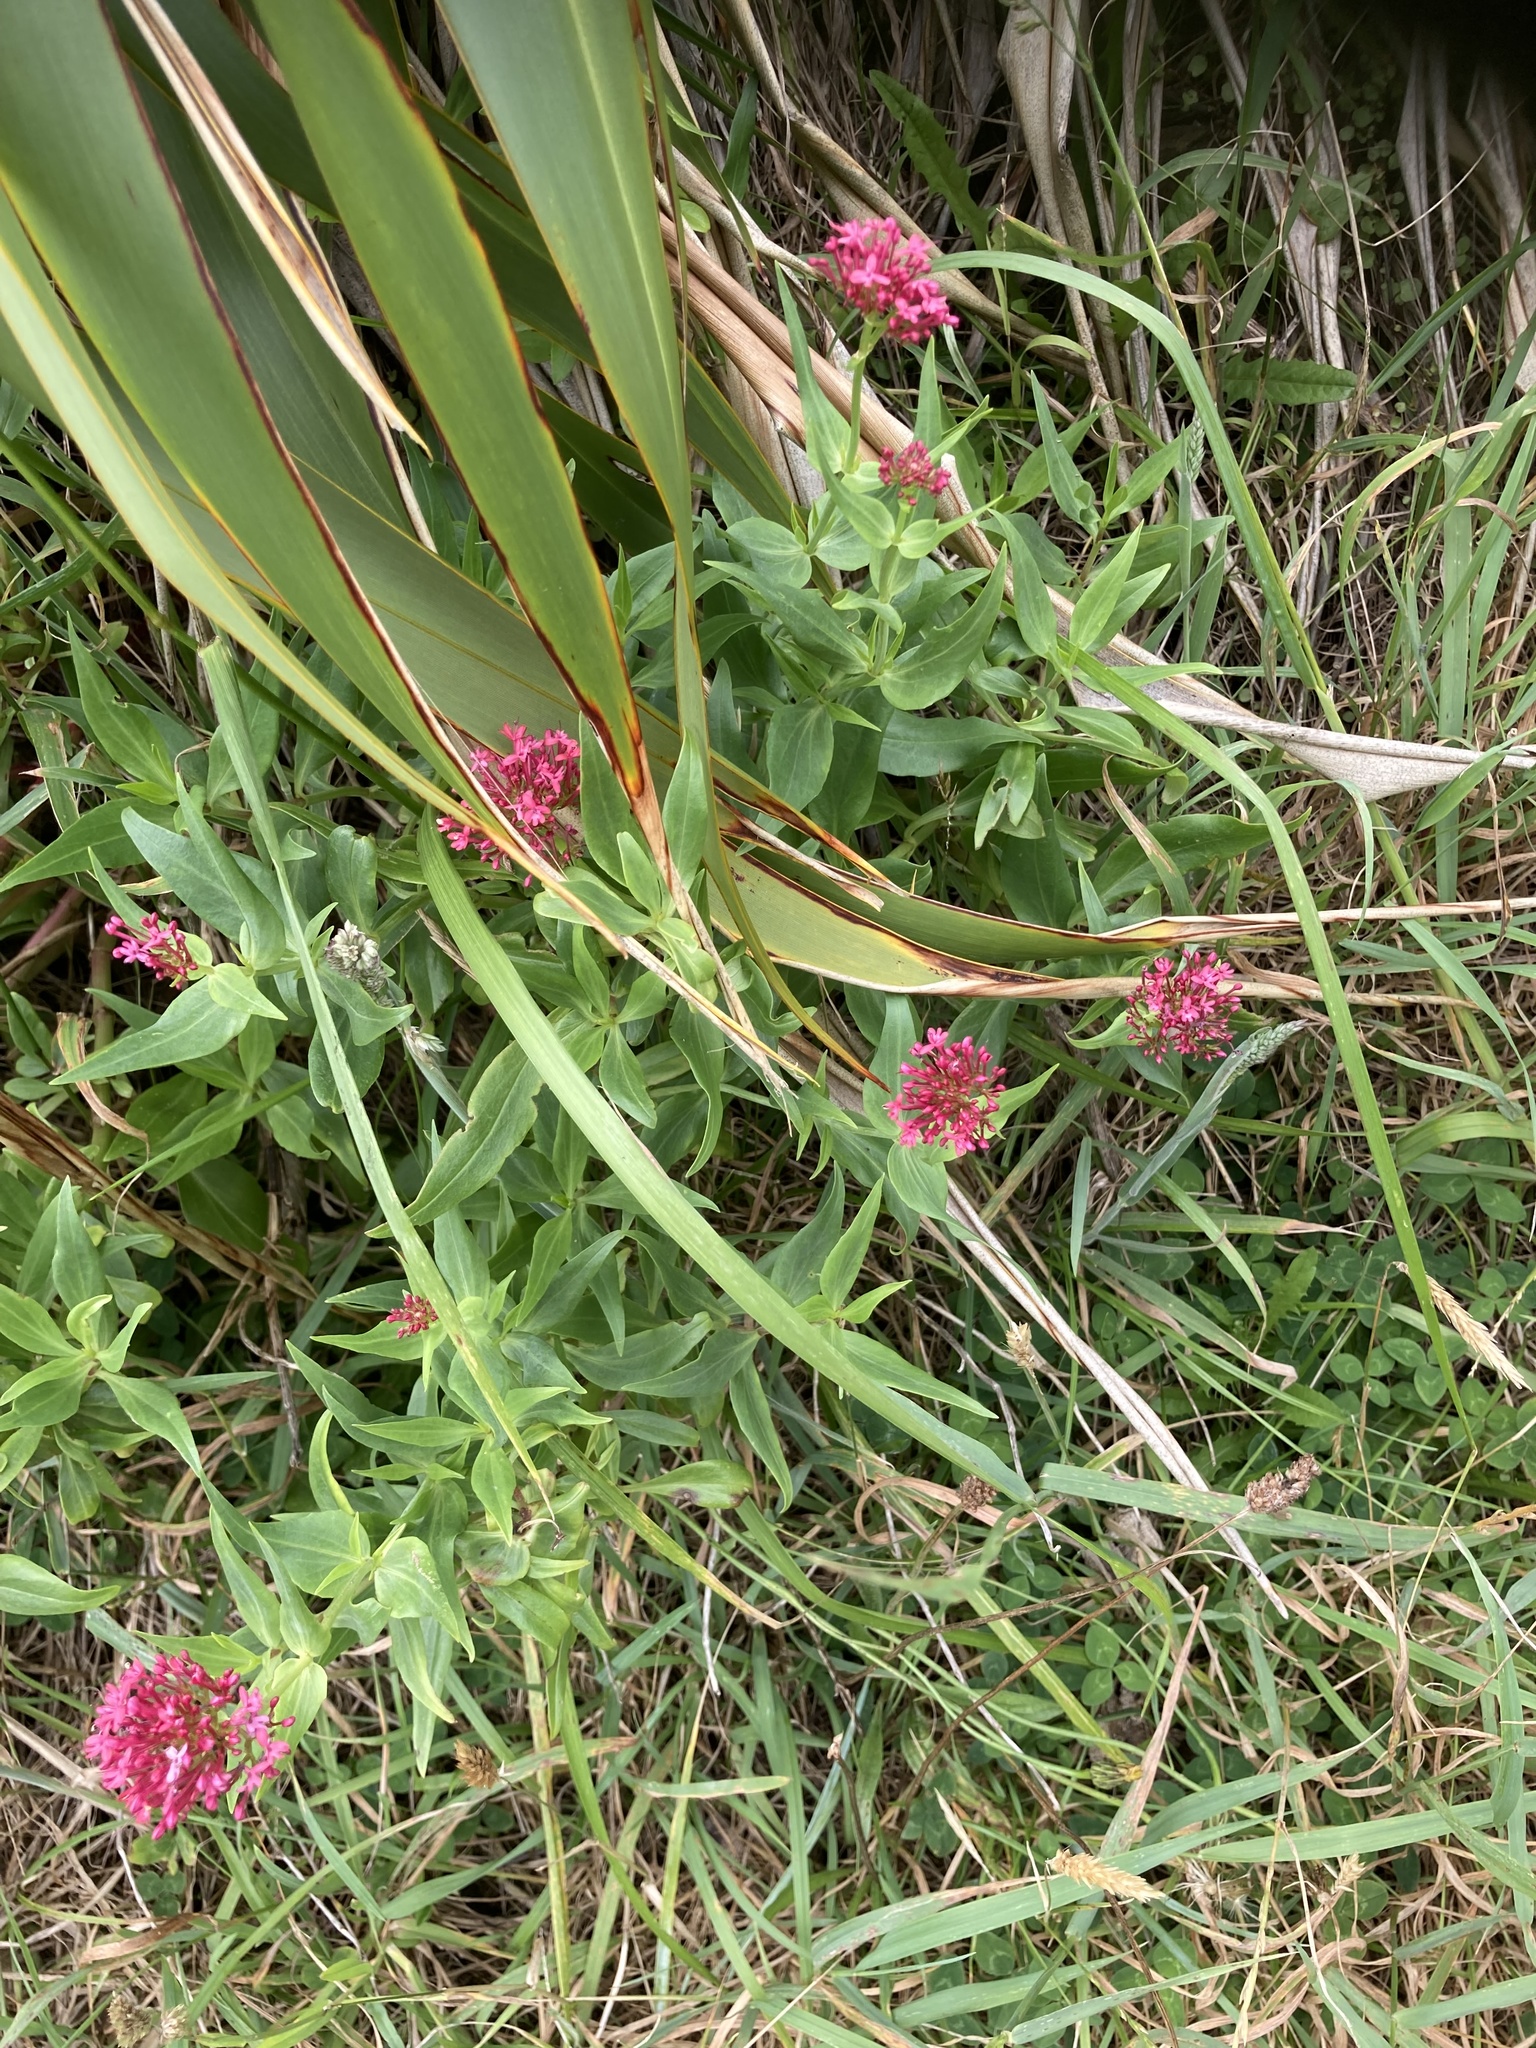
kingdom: Plantae
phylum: Tracheophyta
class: Magnoliopsida
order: Dipsacales
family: Caprifoliaceae
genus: Centranthus
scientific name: Centranthus ruber
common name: Red valerian
